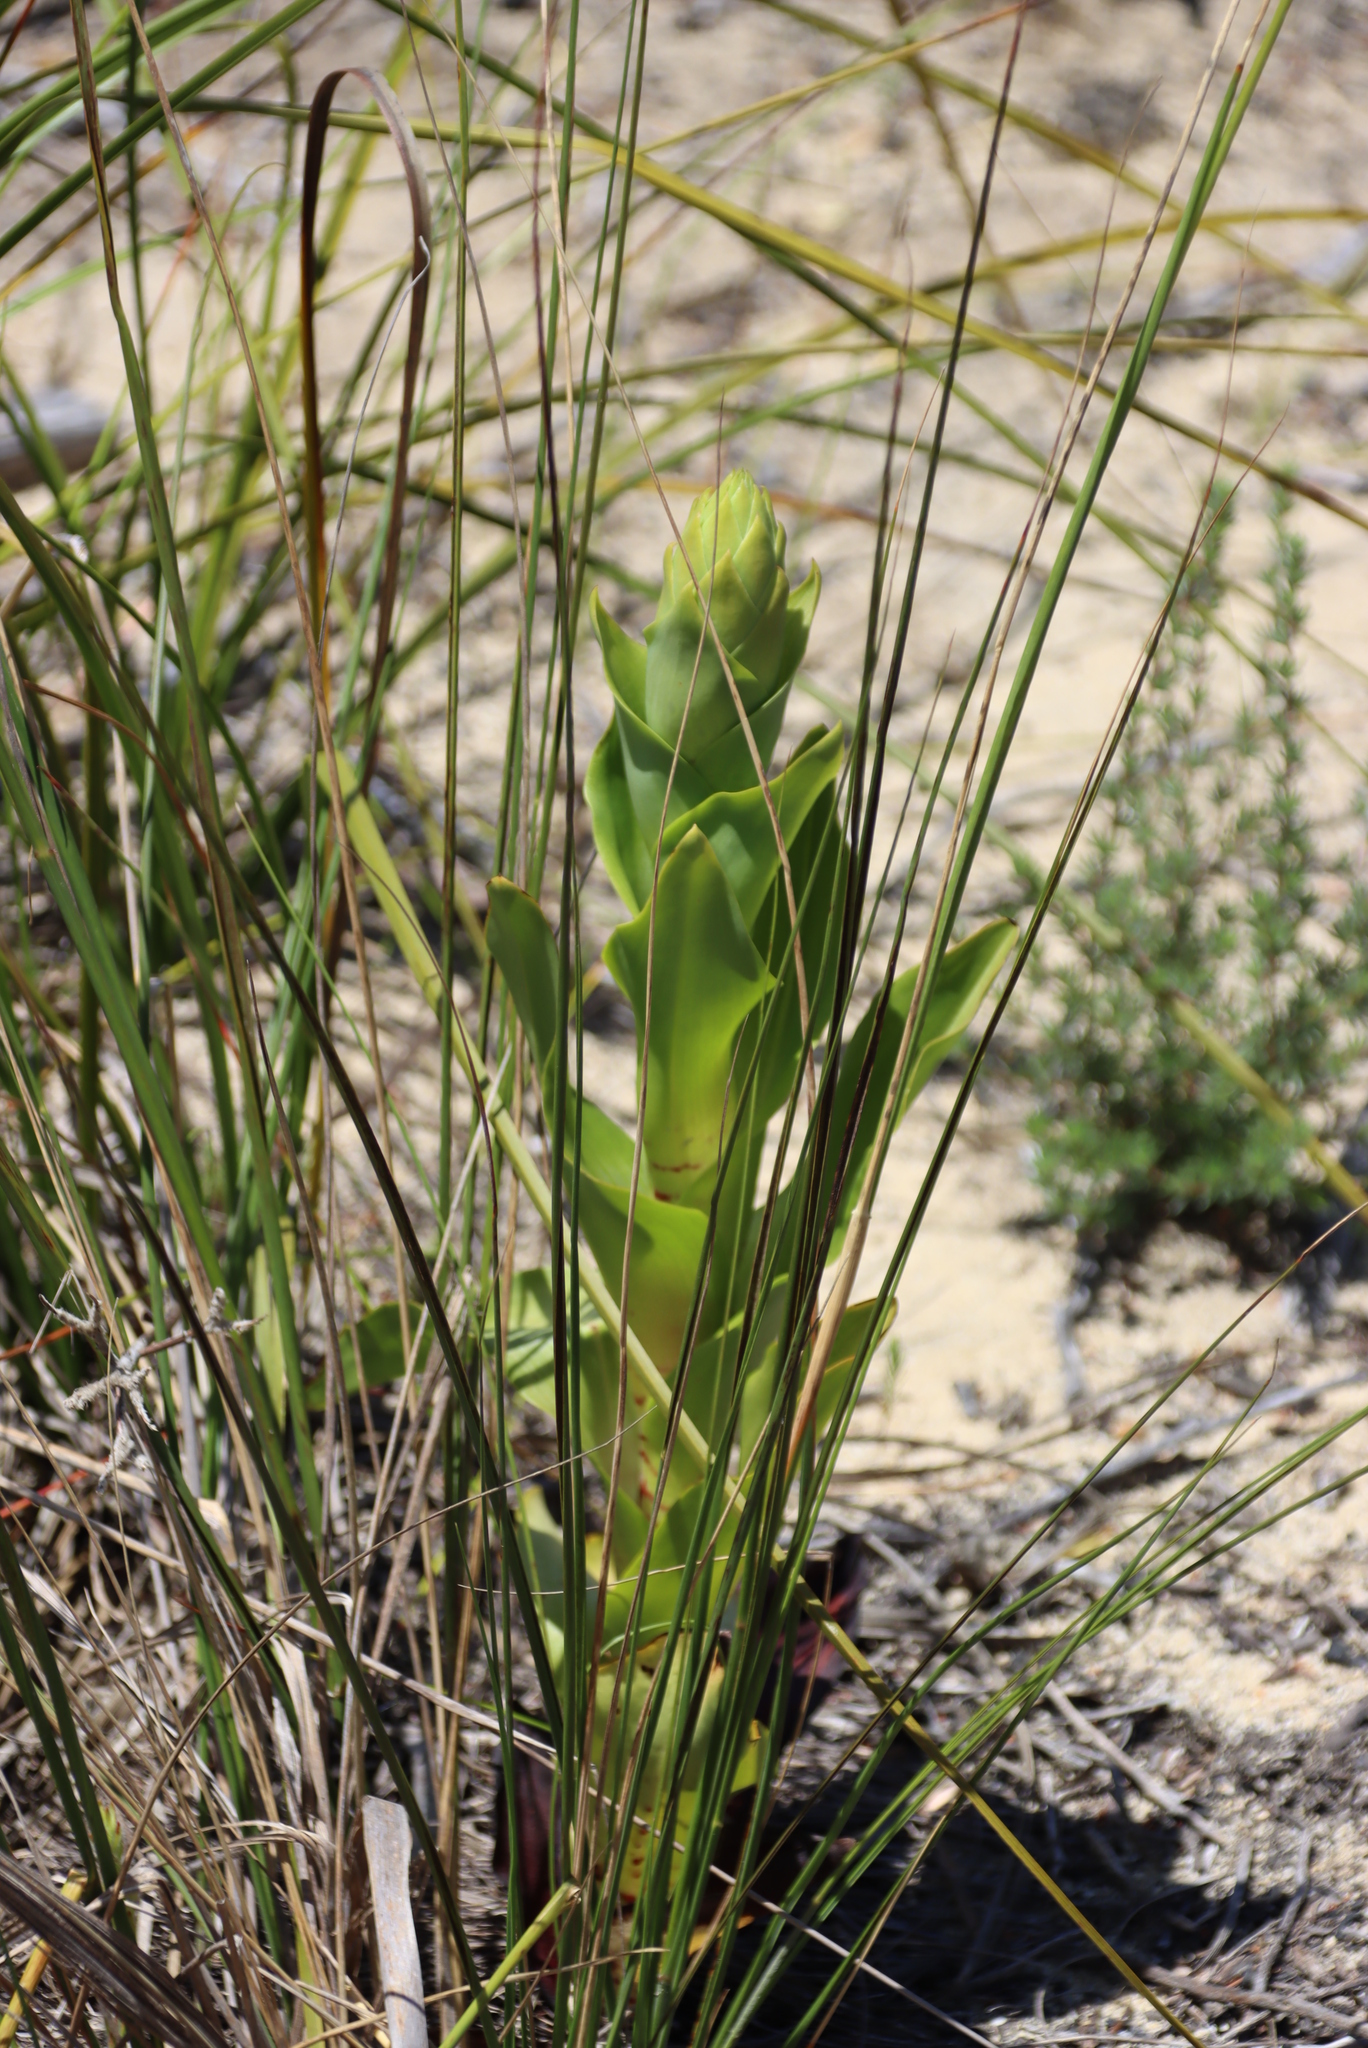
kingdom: Plantae
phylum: Tracheophyta
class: Liliopsida
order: Asparagales
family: Orchidaceae
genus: Disa
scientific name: Disa cornuta
